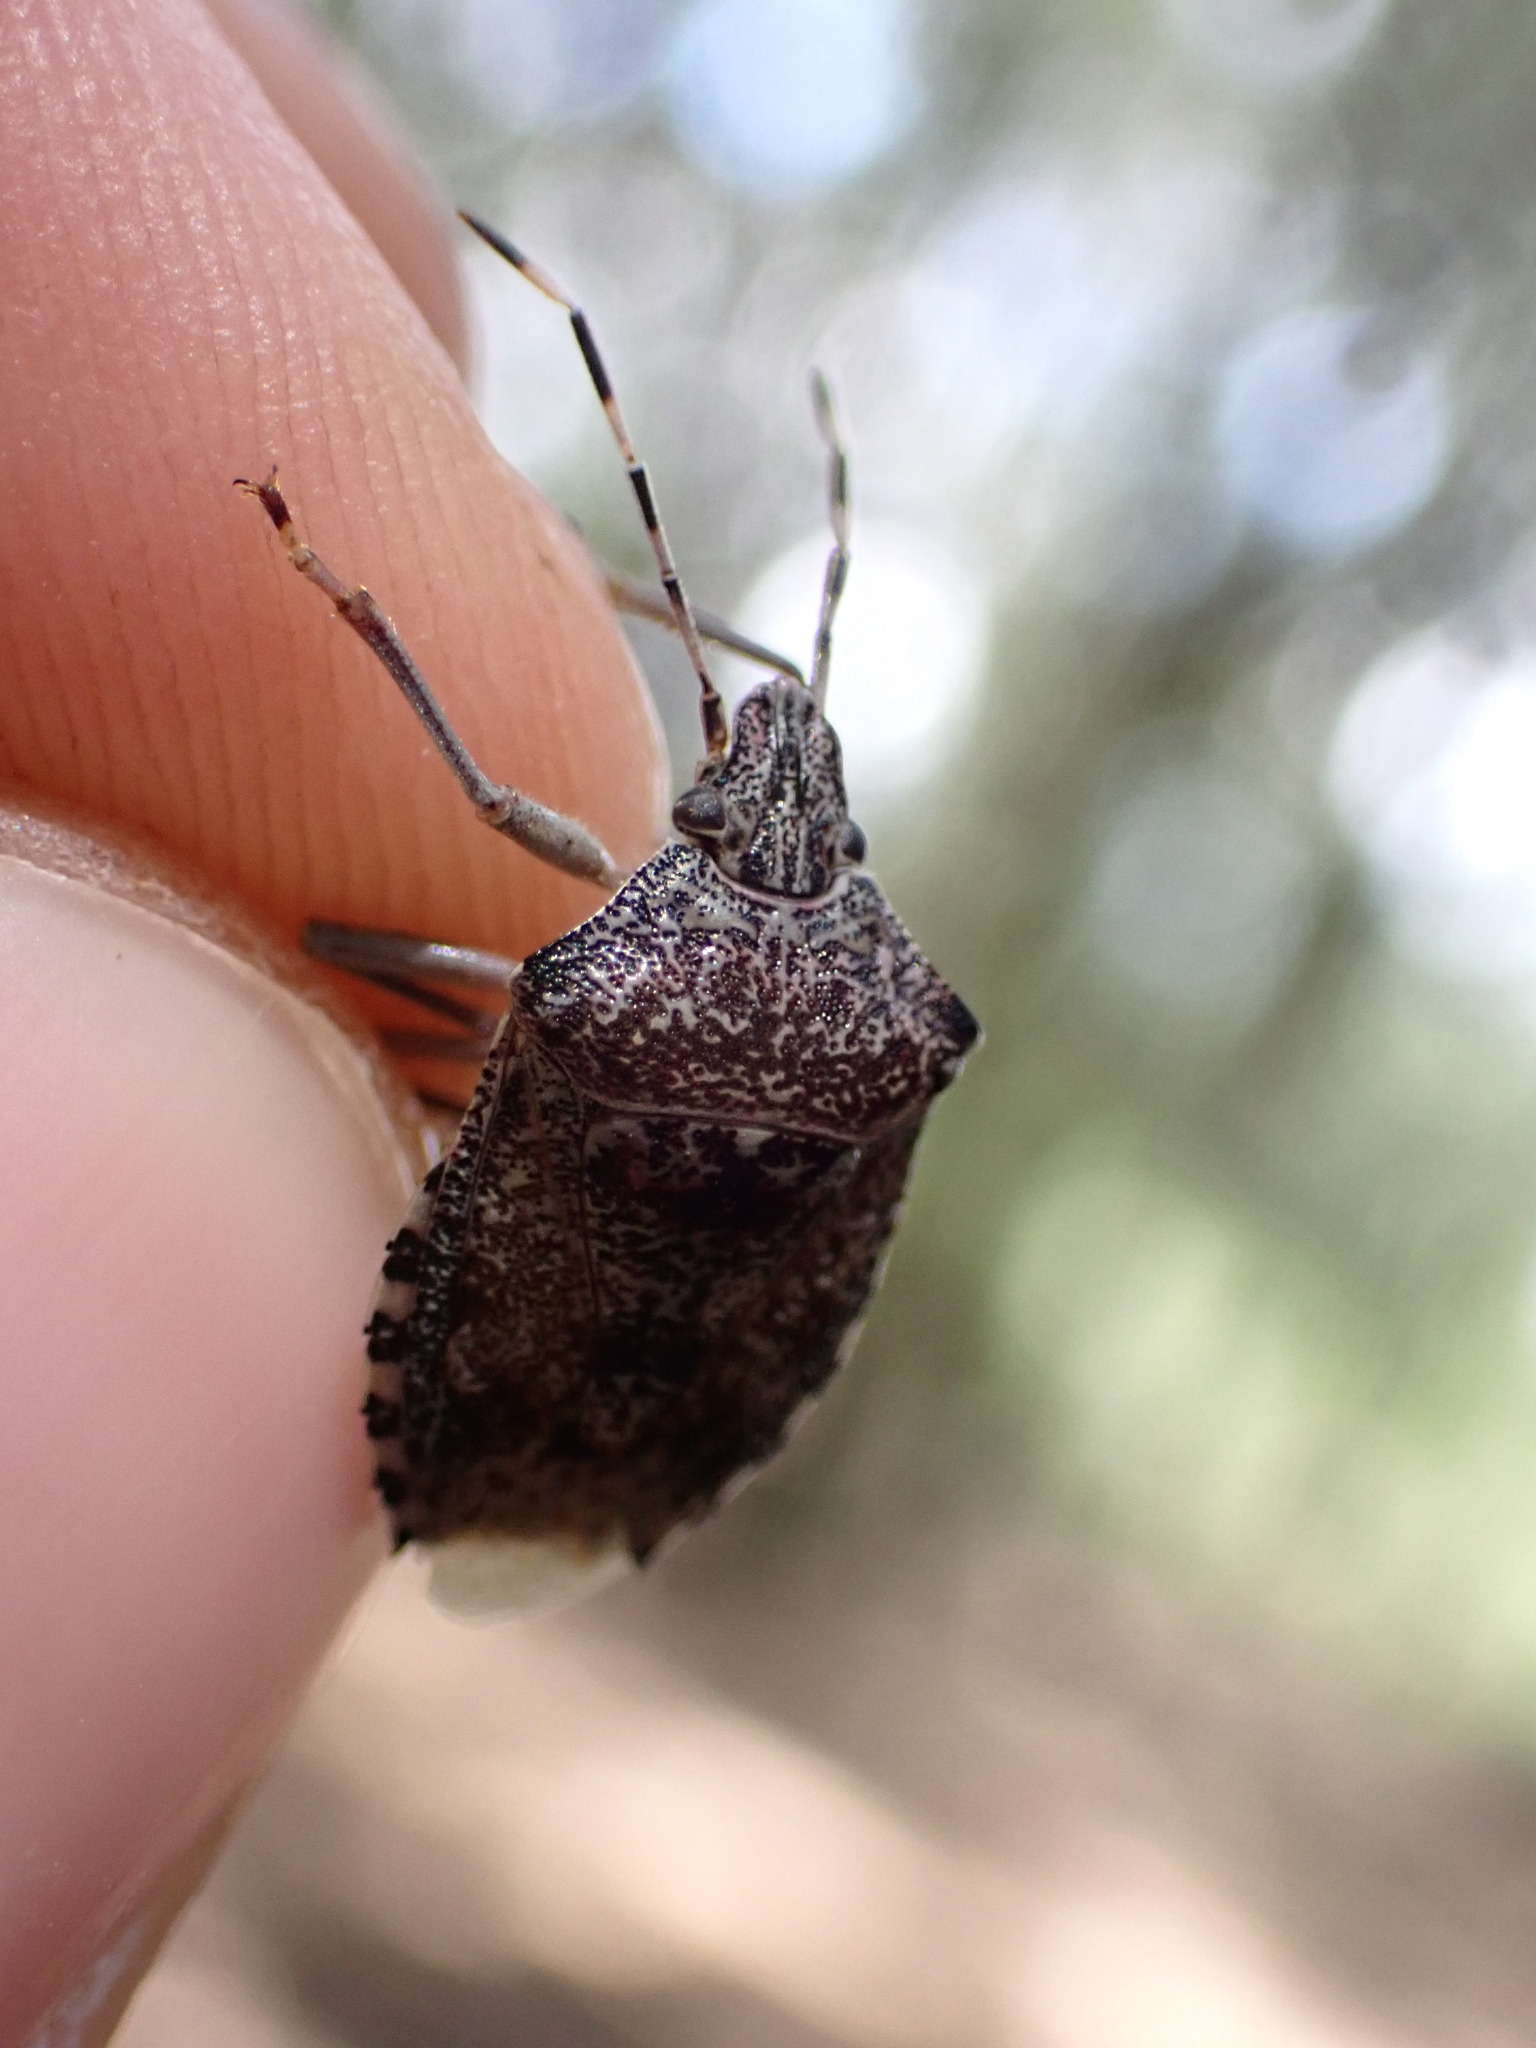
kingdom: Animalia
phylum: Arthropoda
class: Insecta
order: Hemiptera
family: Pentatomidae
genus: Rhaphigaster
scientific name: Rhaphigaster nebulosa
